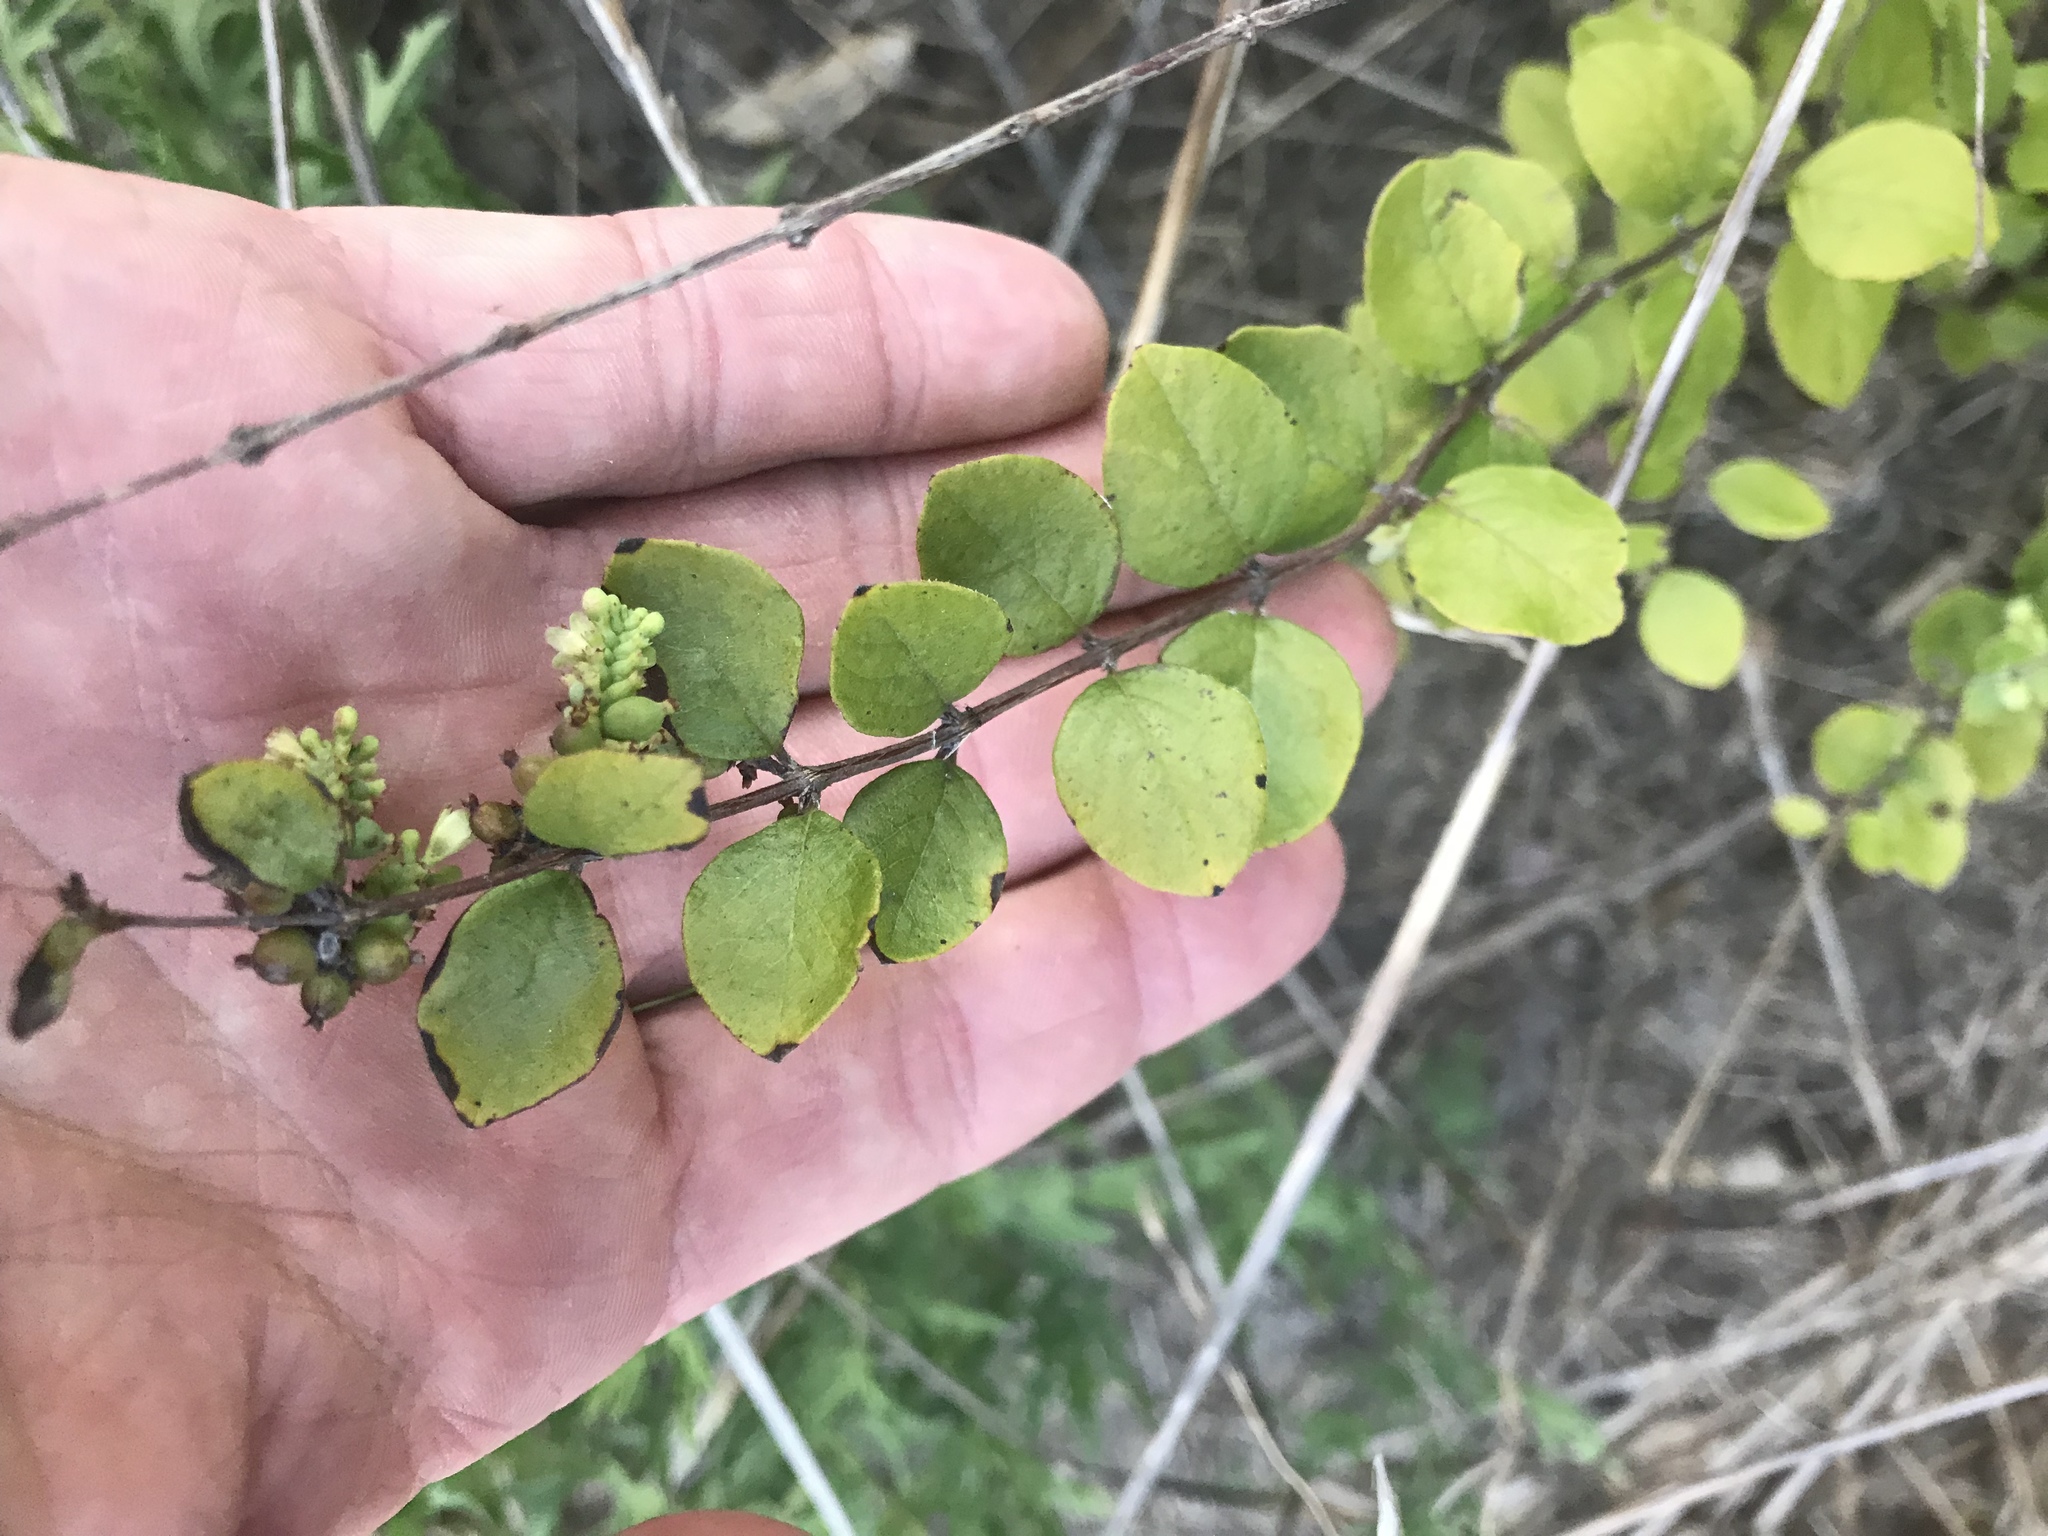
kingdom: Plantae
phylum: Tracheophyta
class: Magnoliopsida
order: Dipsacales
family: Caprifoliaceae
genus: Symphoricarpos
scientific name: Symphoricarpos orbiculatus
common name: Coralberry
